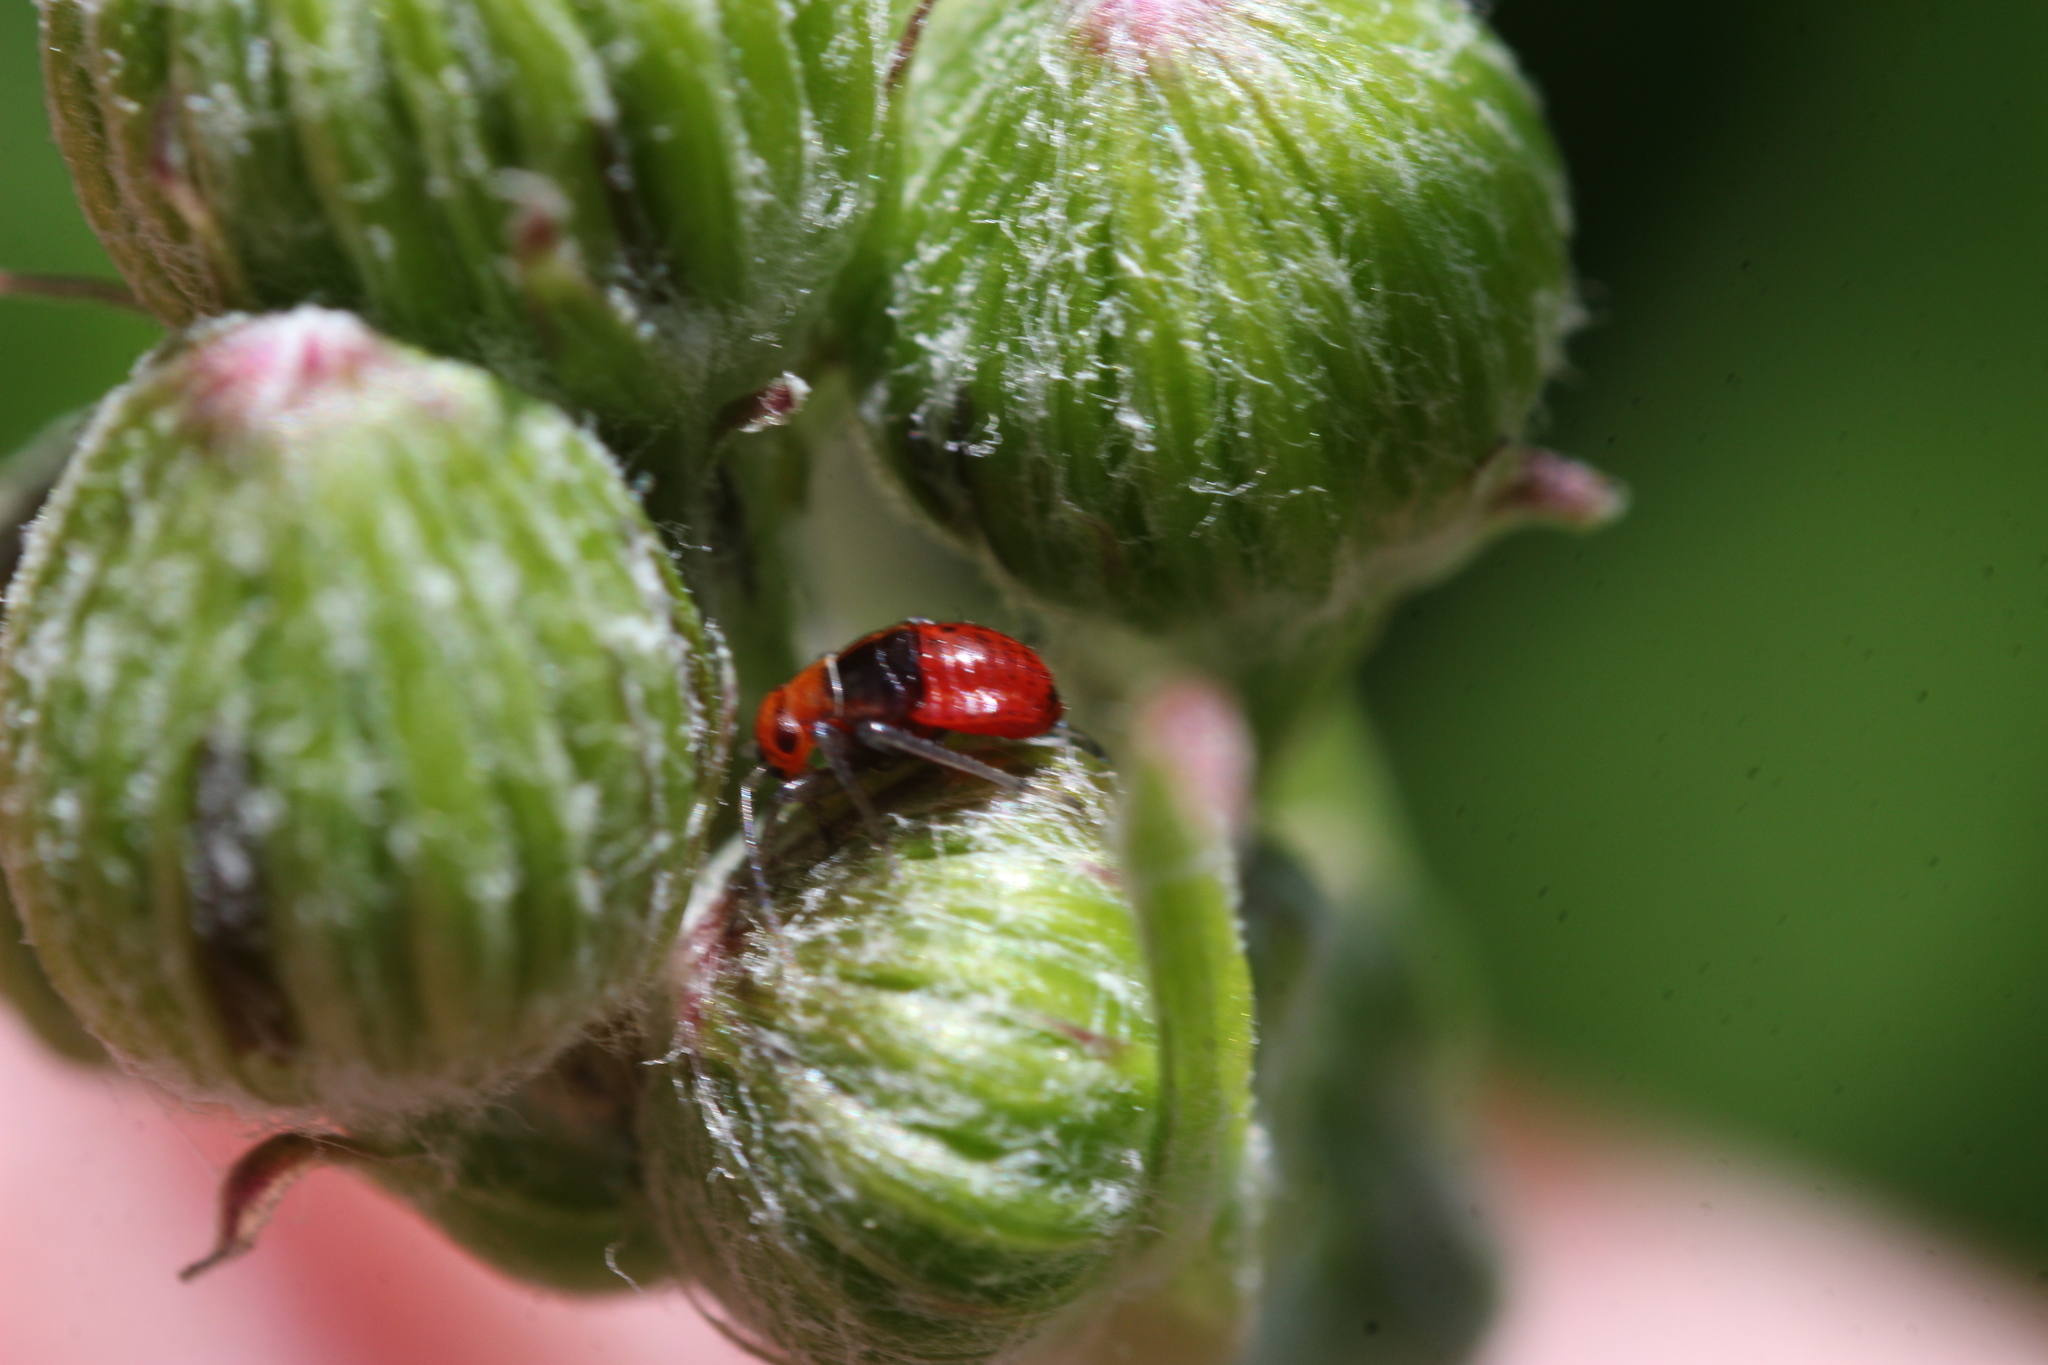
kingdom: Animalia
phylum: Arthropoda
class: Insecta
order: Hemiptera
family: Miridae
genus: Poecilocapsus
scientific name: Poecilocapsus lineatus
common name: Four-lined plant bug
